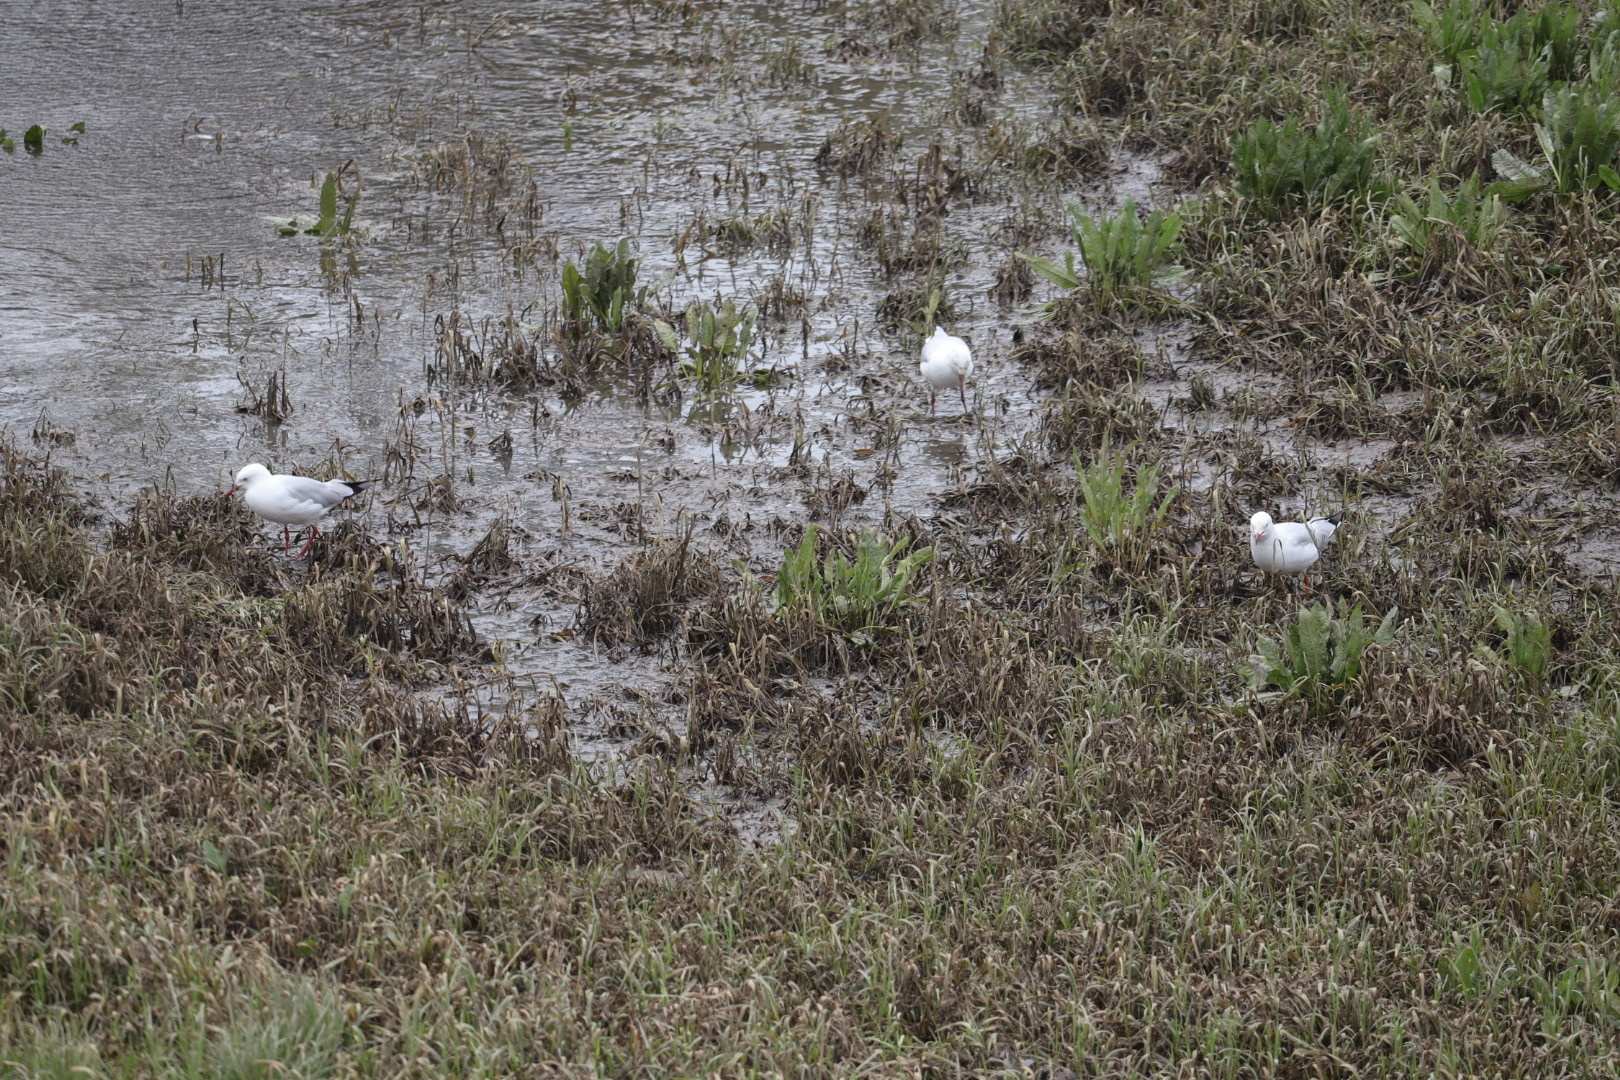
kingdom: Animalia
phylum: Chordata
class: Aves
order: Charadriiformes
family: Laridae
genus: Chroicocephalus
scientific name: Chroicocephalus novaehollandiae
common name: Silver gull
